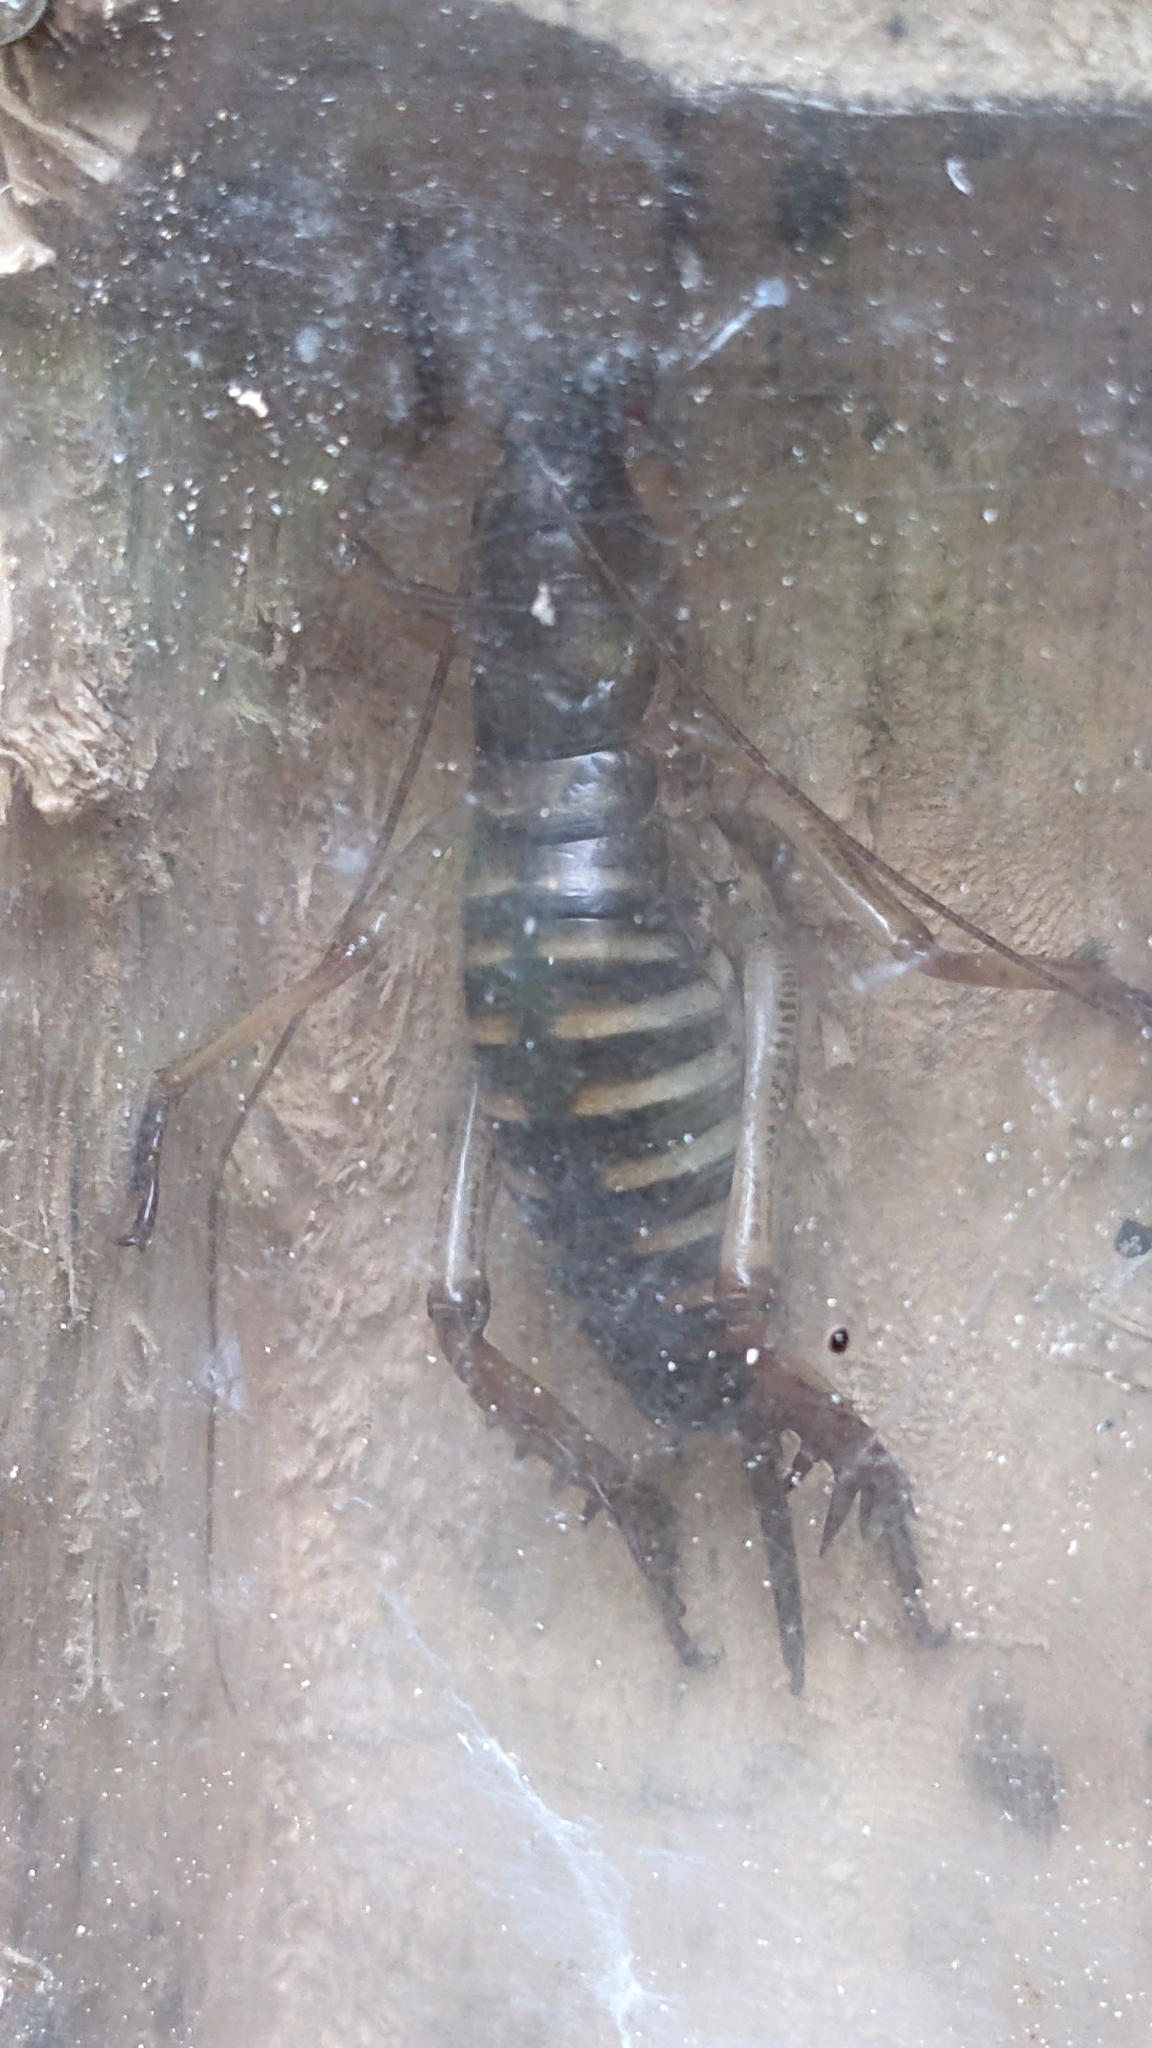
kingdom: Animalia
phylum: Arthropoda
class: Insecta
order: Orthoptera
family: Anostostomatidae
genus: Hemideina
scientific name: Hemideina crassidens
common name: Wellington tree weta
